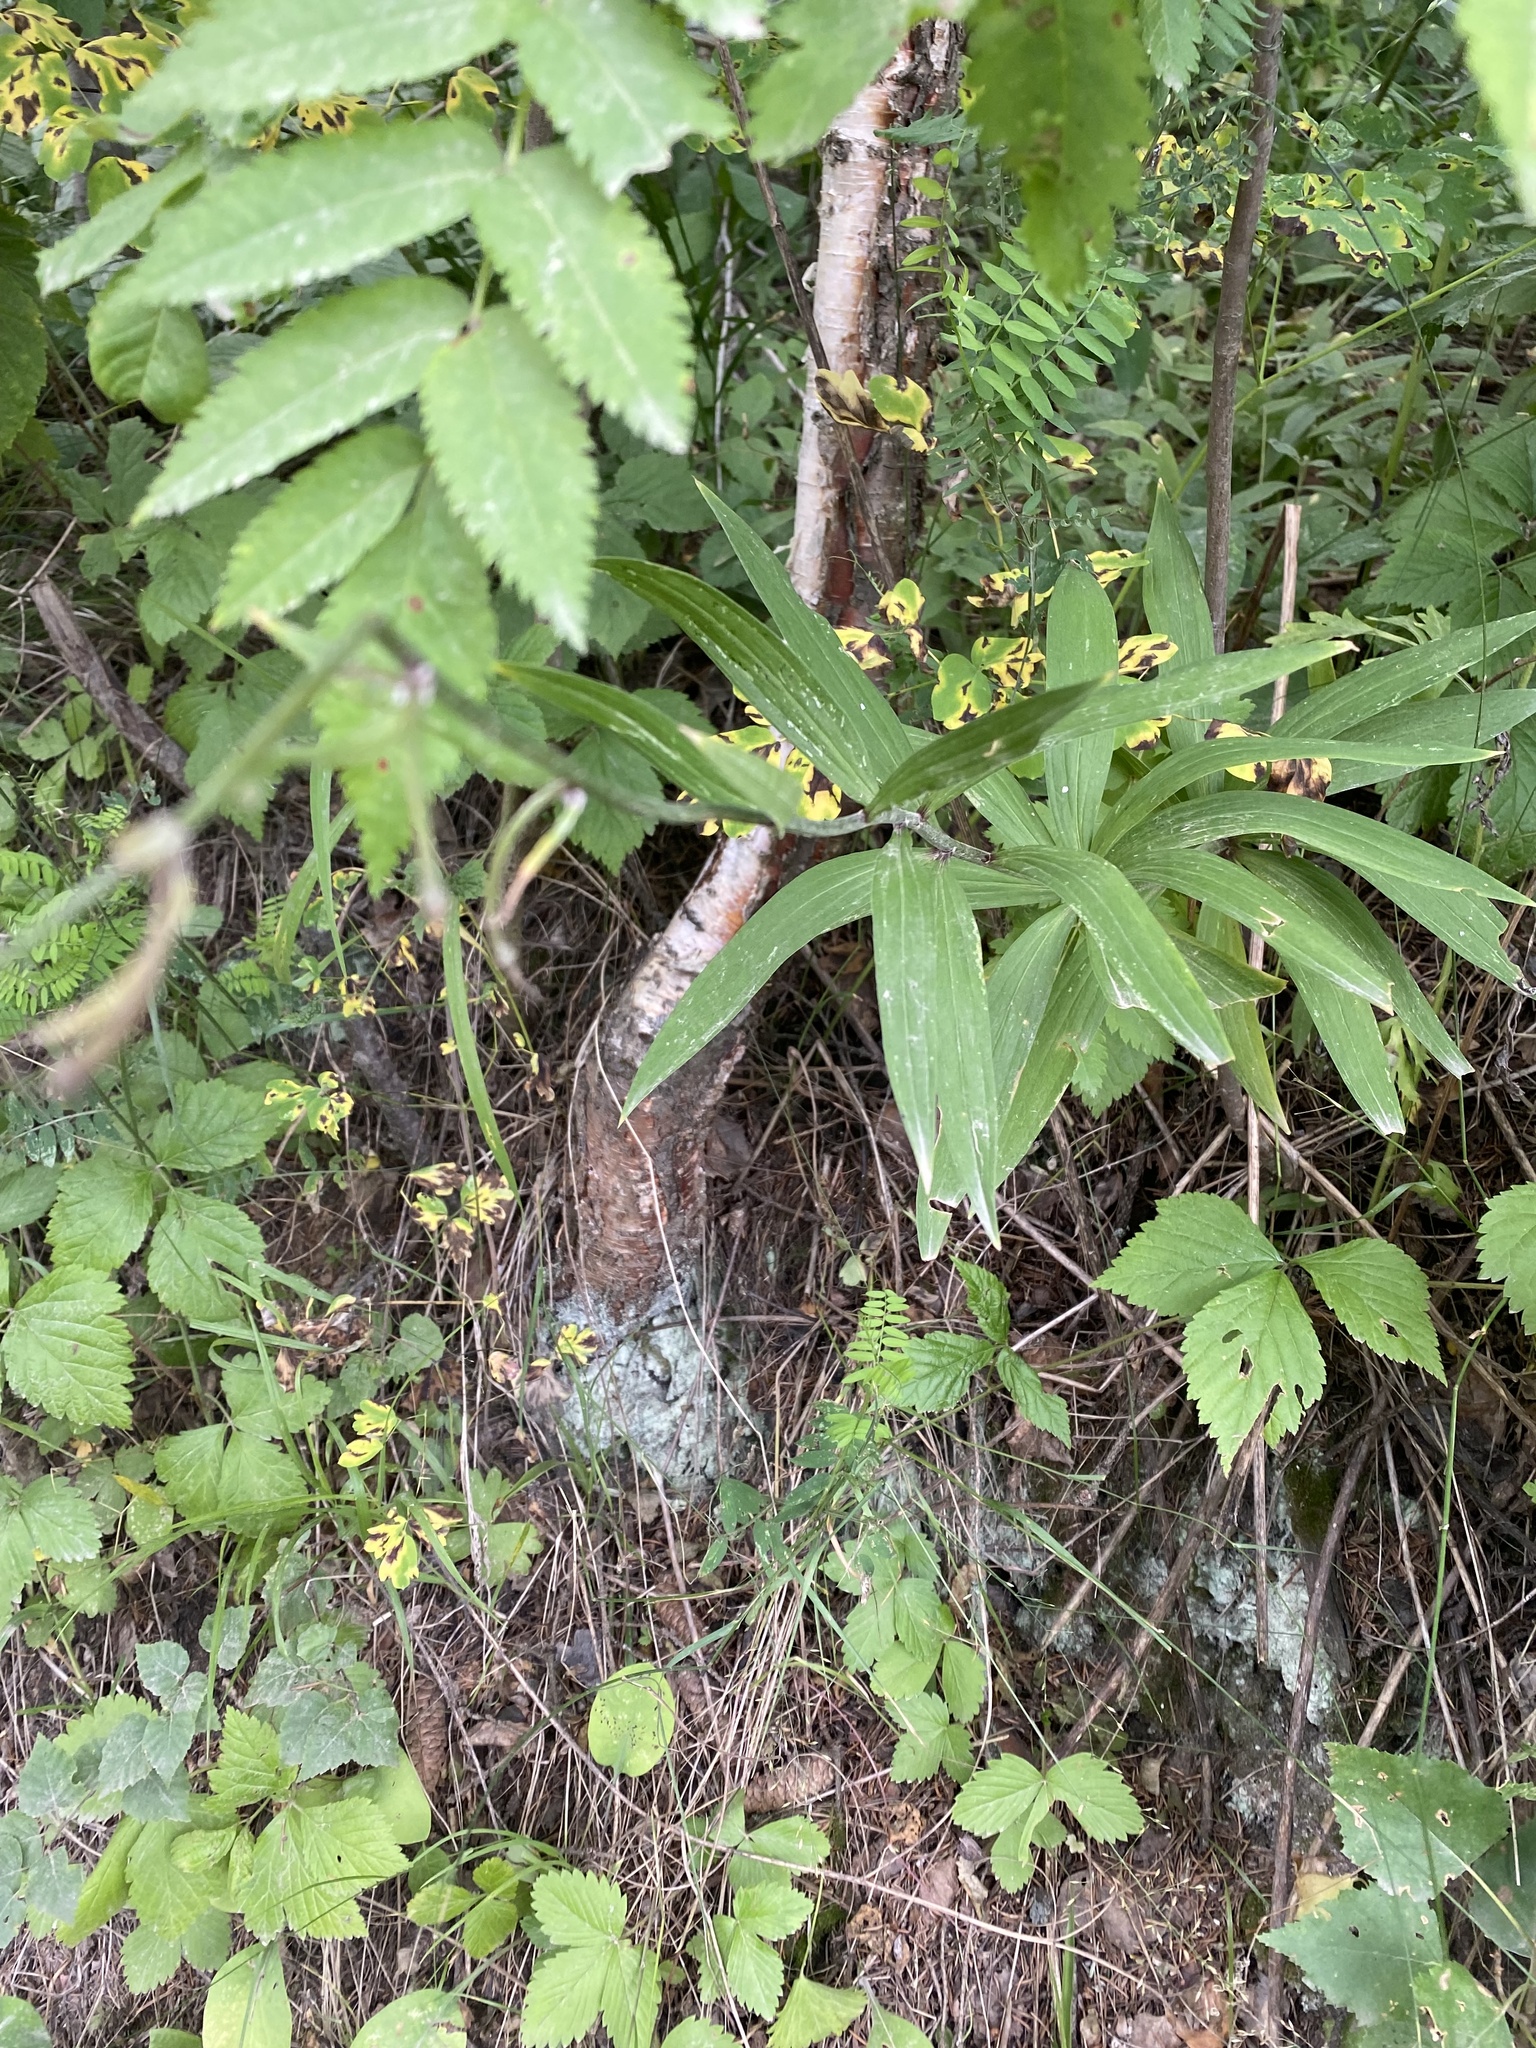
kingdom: Plantae
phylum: Tracheophyta
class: Liliopsida
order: Liliales
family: Liliaceae
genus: Lilium
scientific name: Lilium martagon
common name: Martagon lily
